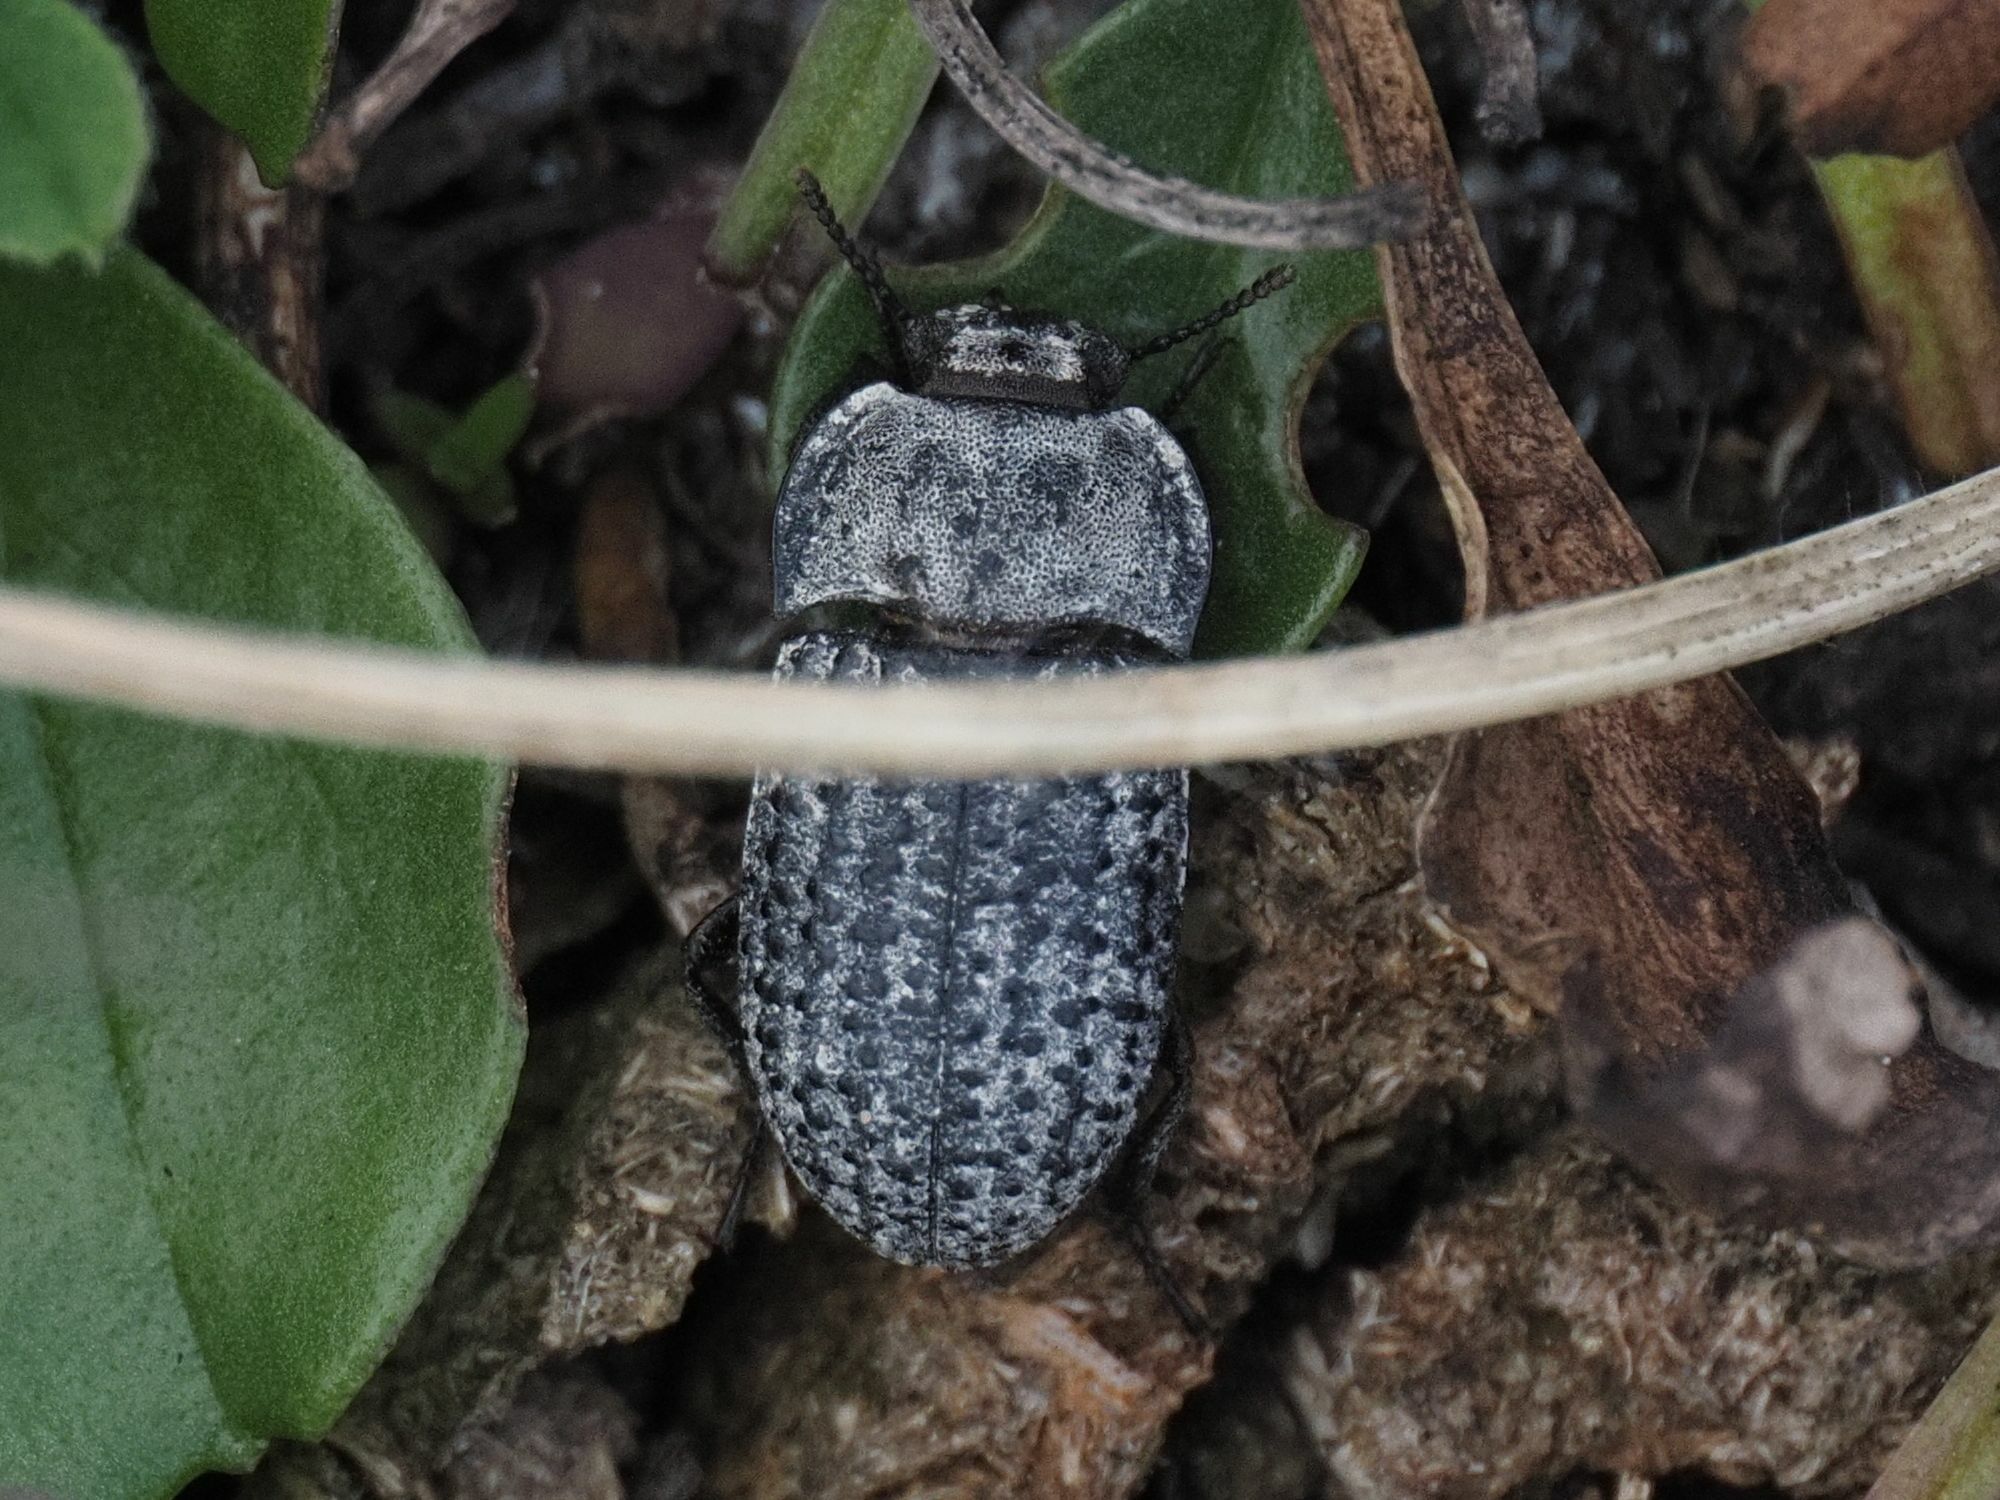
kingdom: Animalia
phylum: Arthropoda
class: Insecta
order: Coleoptera
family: Tenebrionidae
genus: Opatrum
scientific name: Opatrum sabulosum
